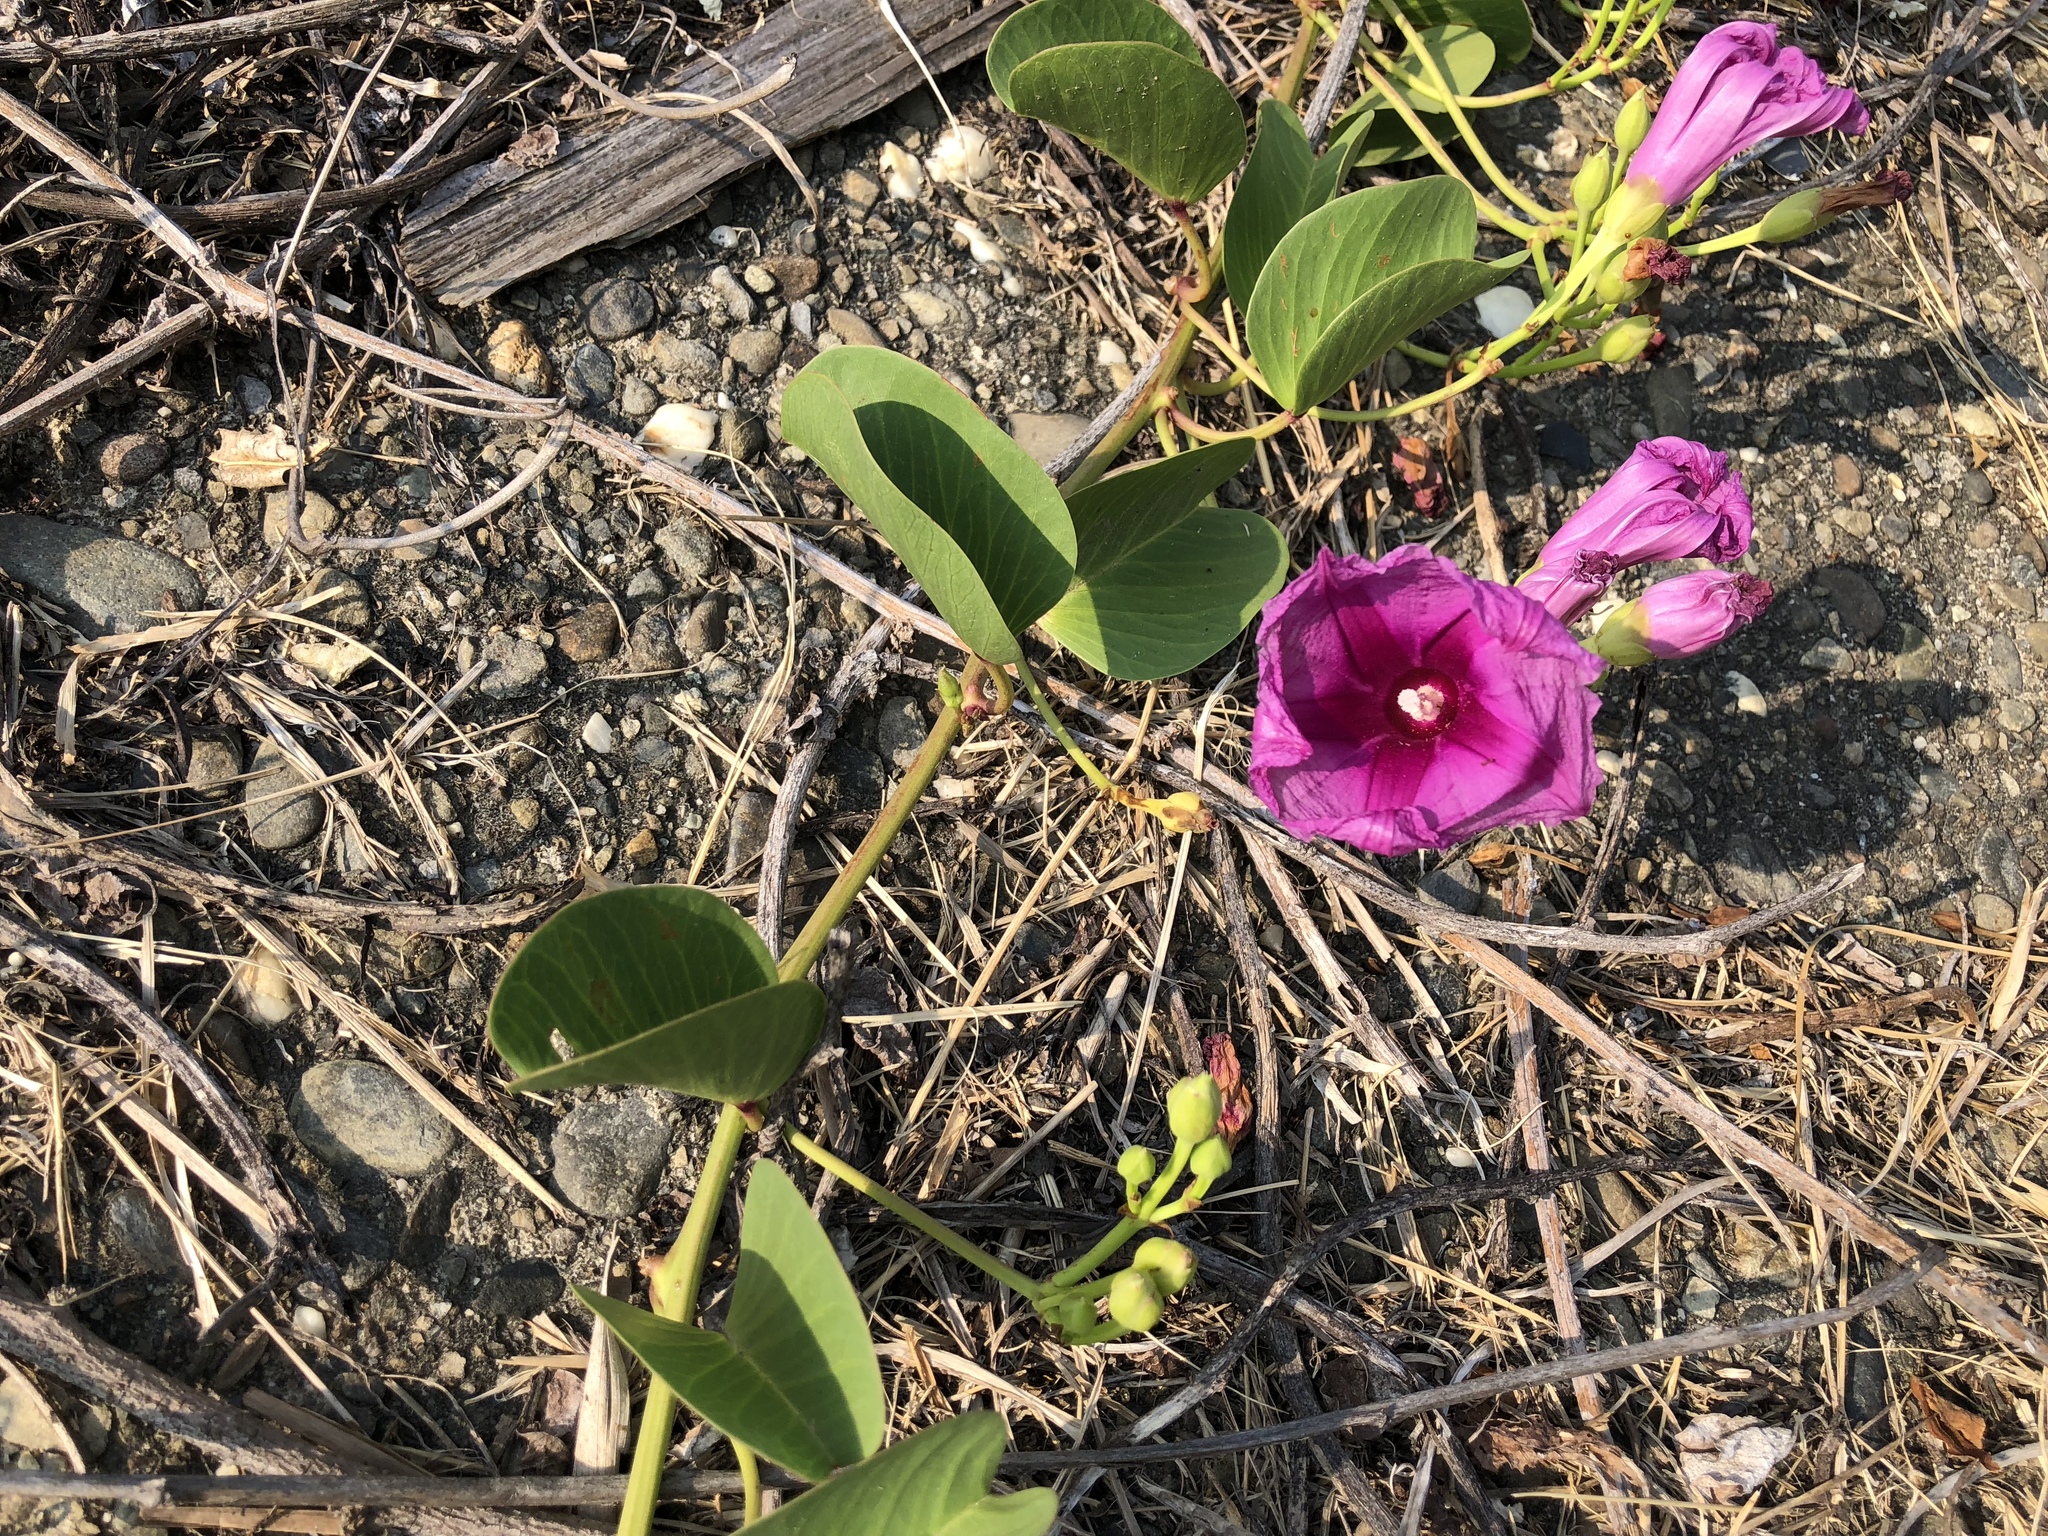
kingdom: Plantae
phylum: Tracheophyta
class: Magnoliopsida
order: Solanales
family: Convolvulaceae
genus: Ipomoea
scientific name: Ipomoea pes-caprae
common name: Beach morning glory
